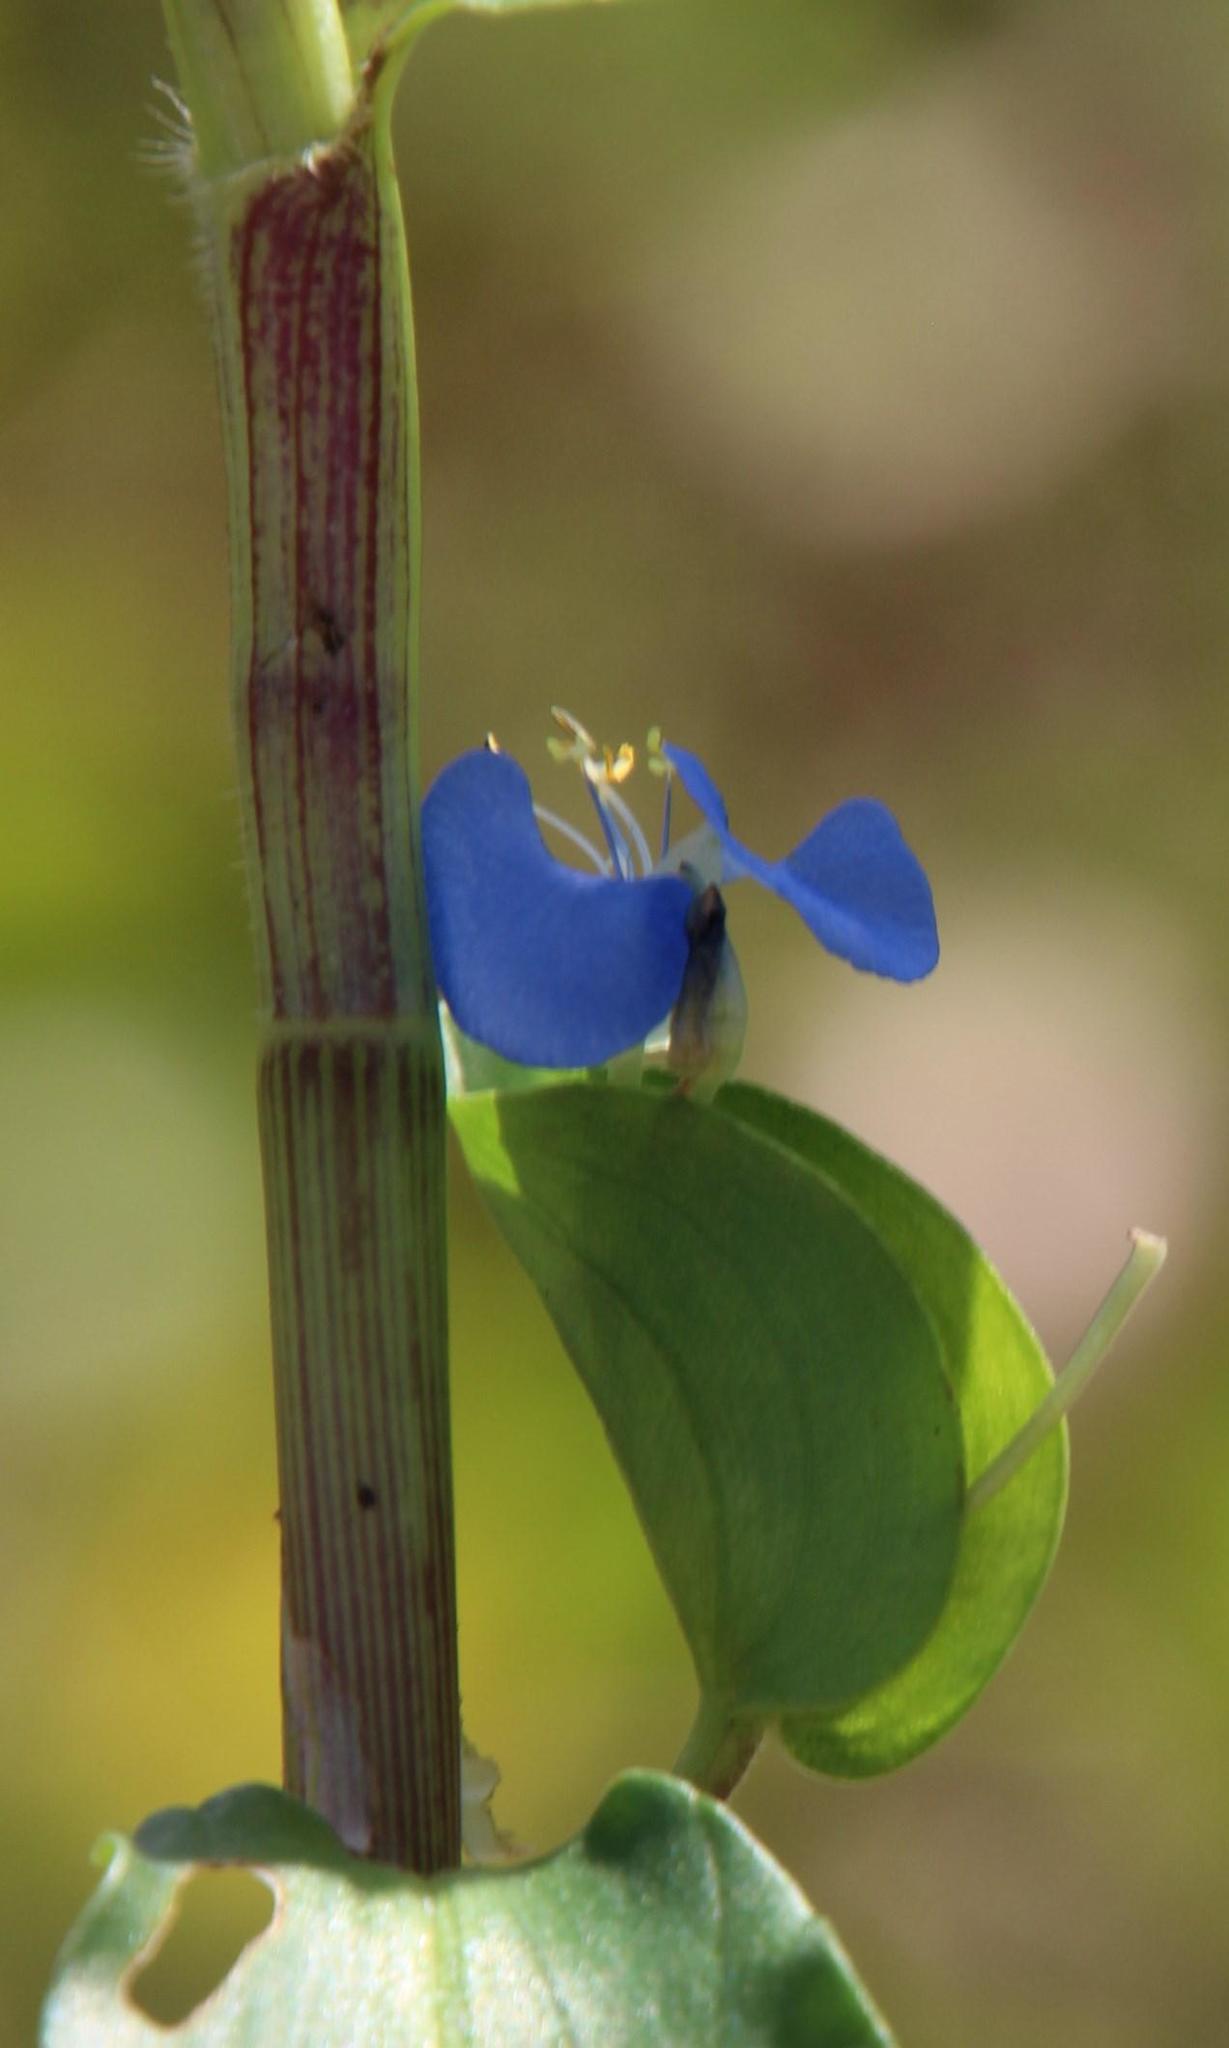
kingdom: Plantae
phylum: Tracheophyta
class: Liliopsida
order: Commelinales
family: Commelinaceae
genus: Commelina
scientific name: Commelina benghalensis
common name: Jio
